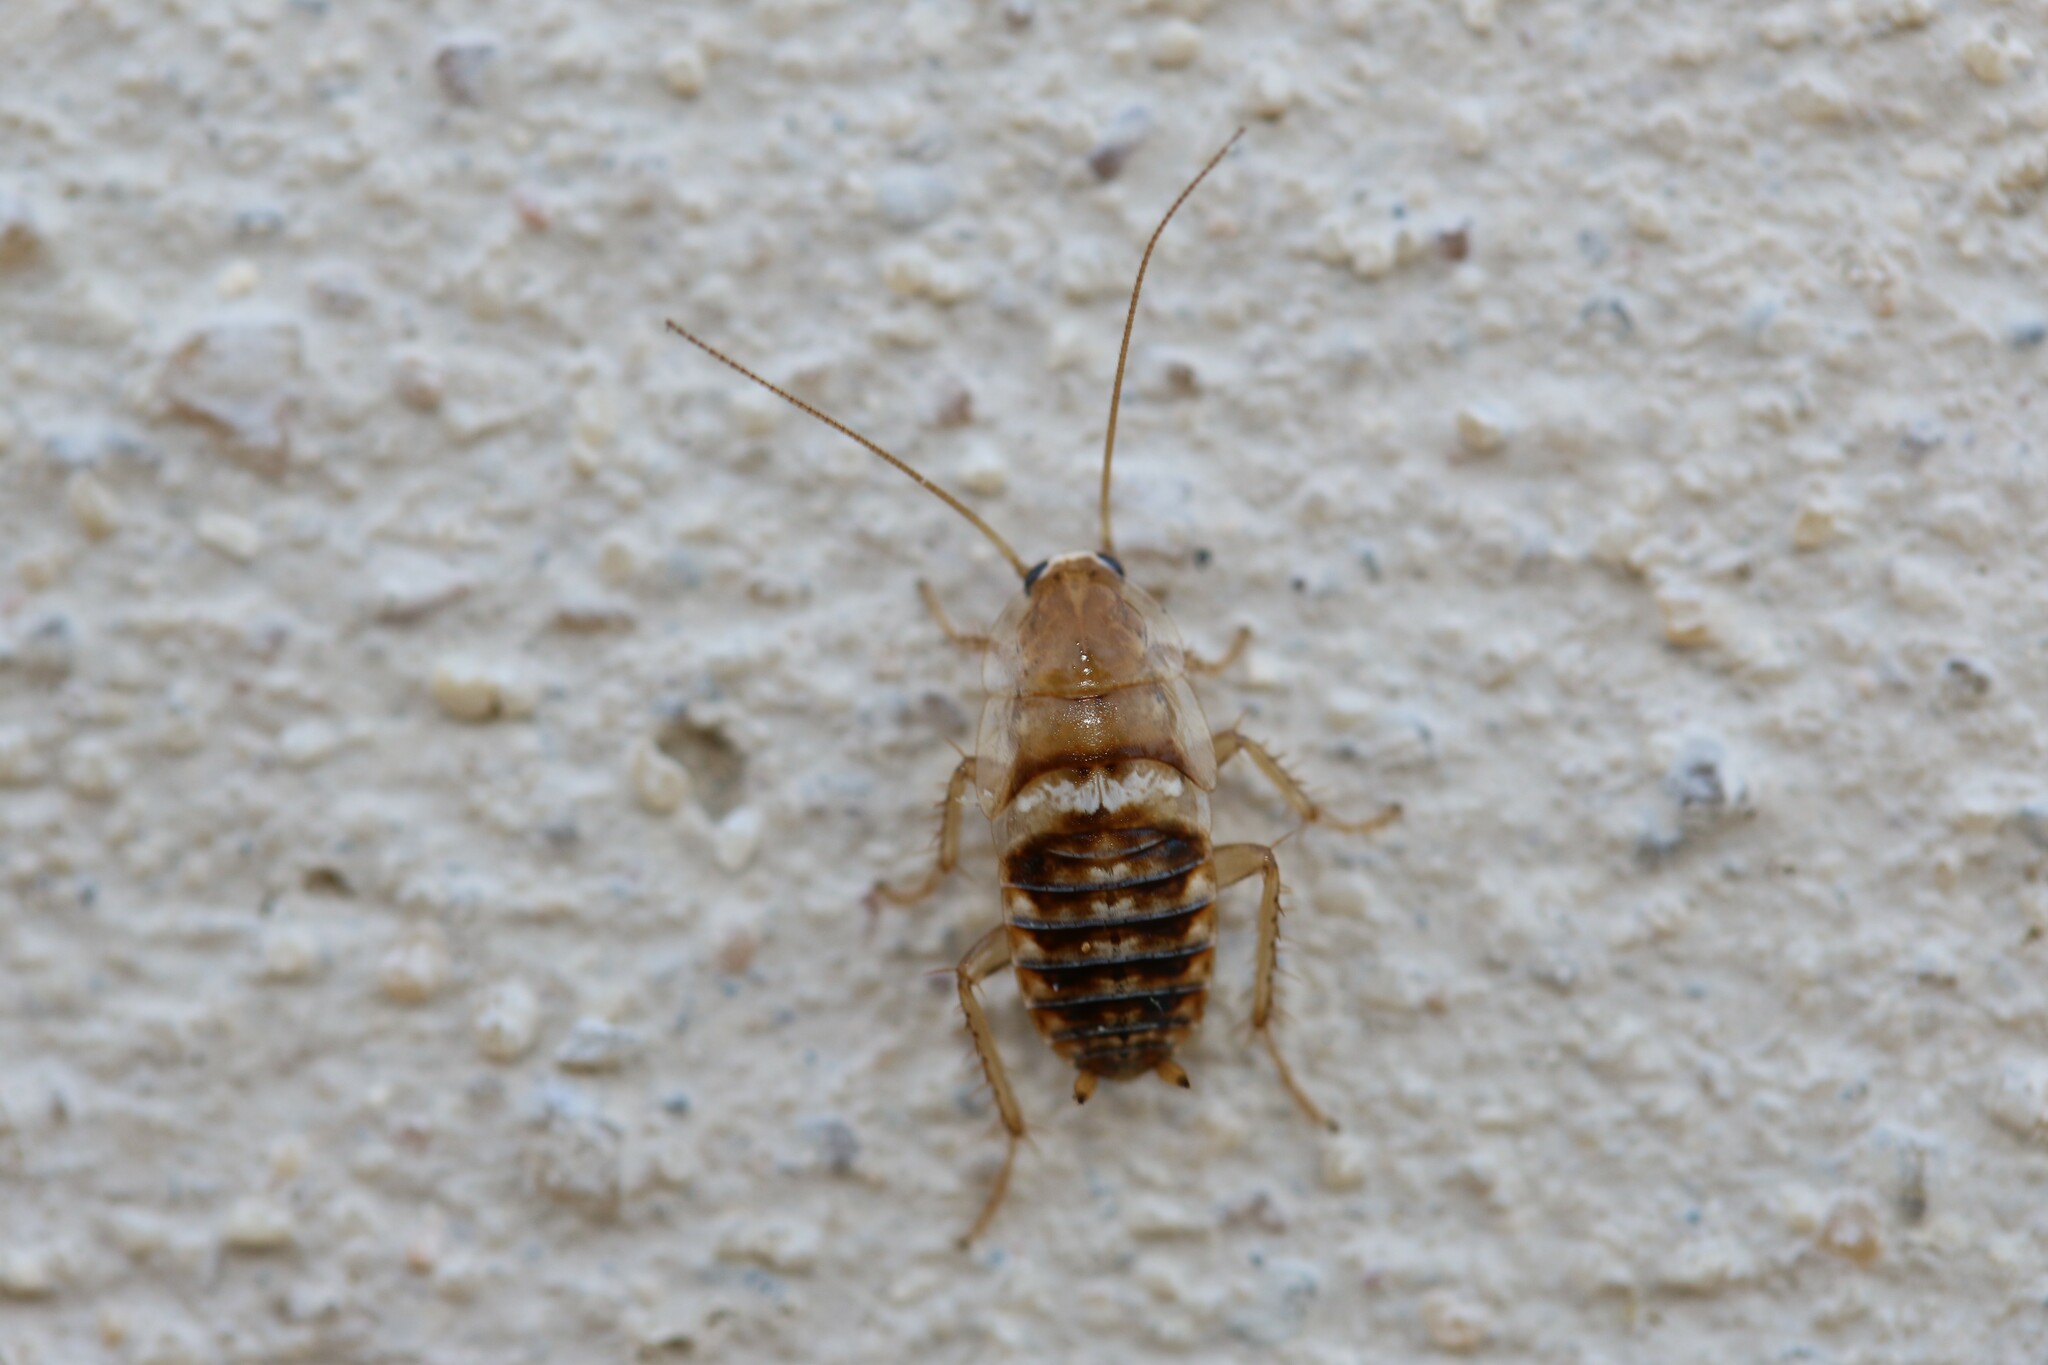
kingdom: Animalia
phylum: Arthropoda
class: Insecta
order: Blattodea
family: Ectobiidae
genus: Planuncus
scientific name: Planuncus tingitanus
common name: Variable cockroach
